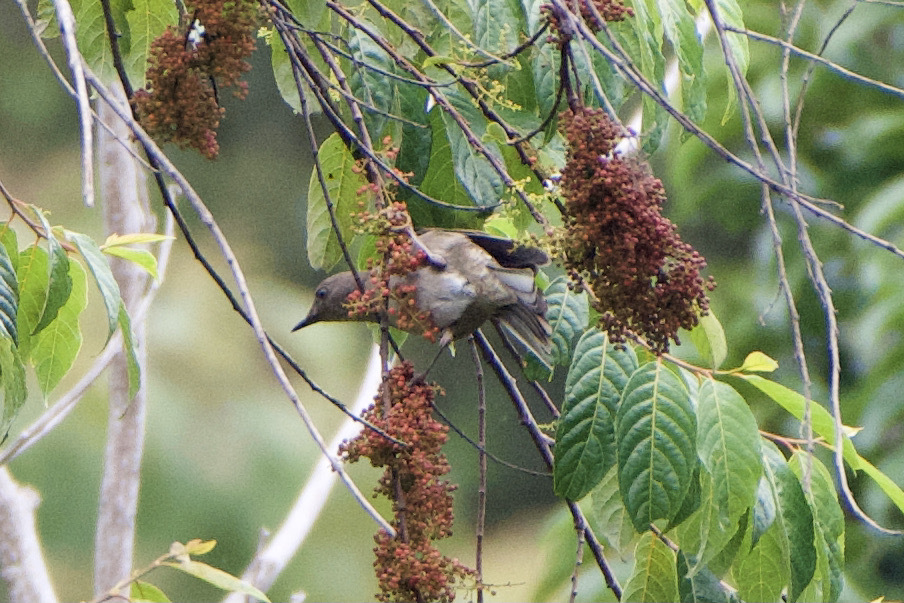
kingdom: Animalia
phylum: Chordata
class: Aves
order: Passeriformes
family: Turdidae
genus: Turdus
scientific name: Turdus plebejus
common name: Mountain thrush
